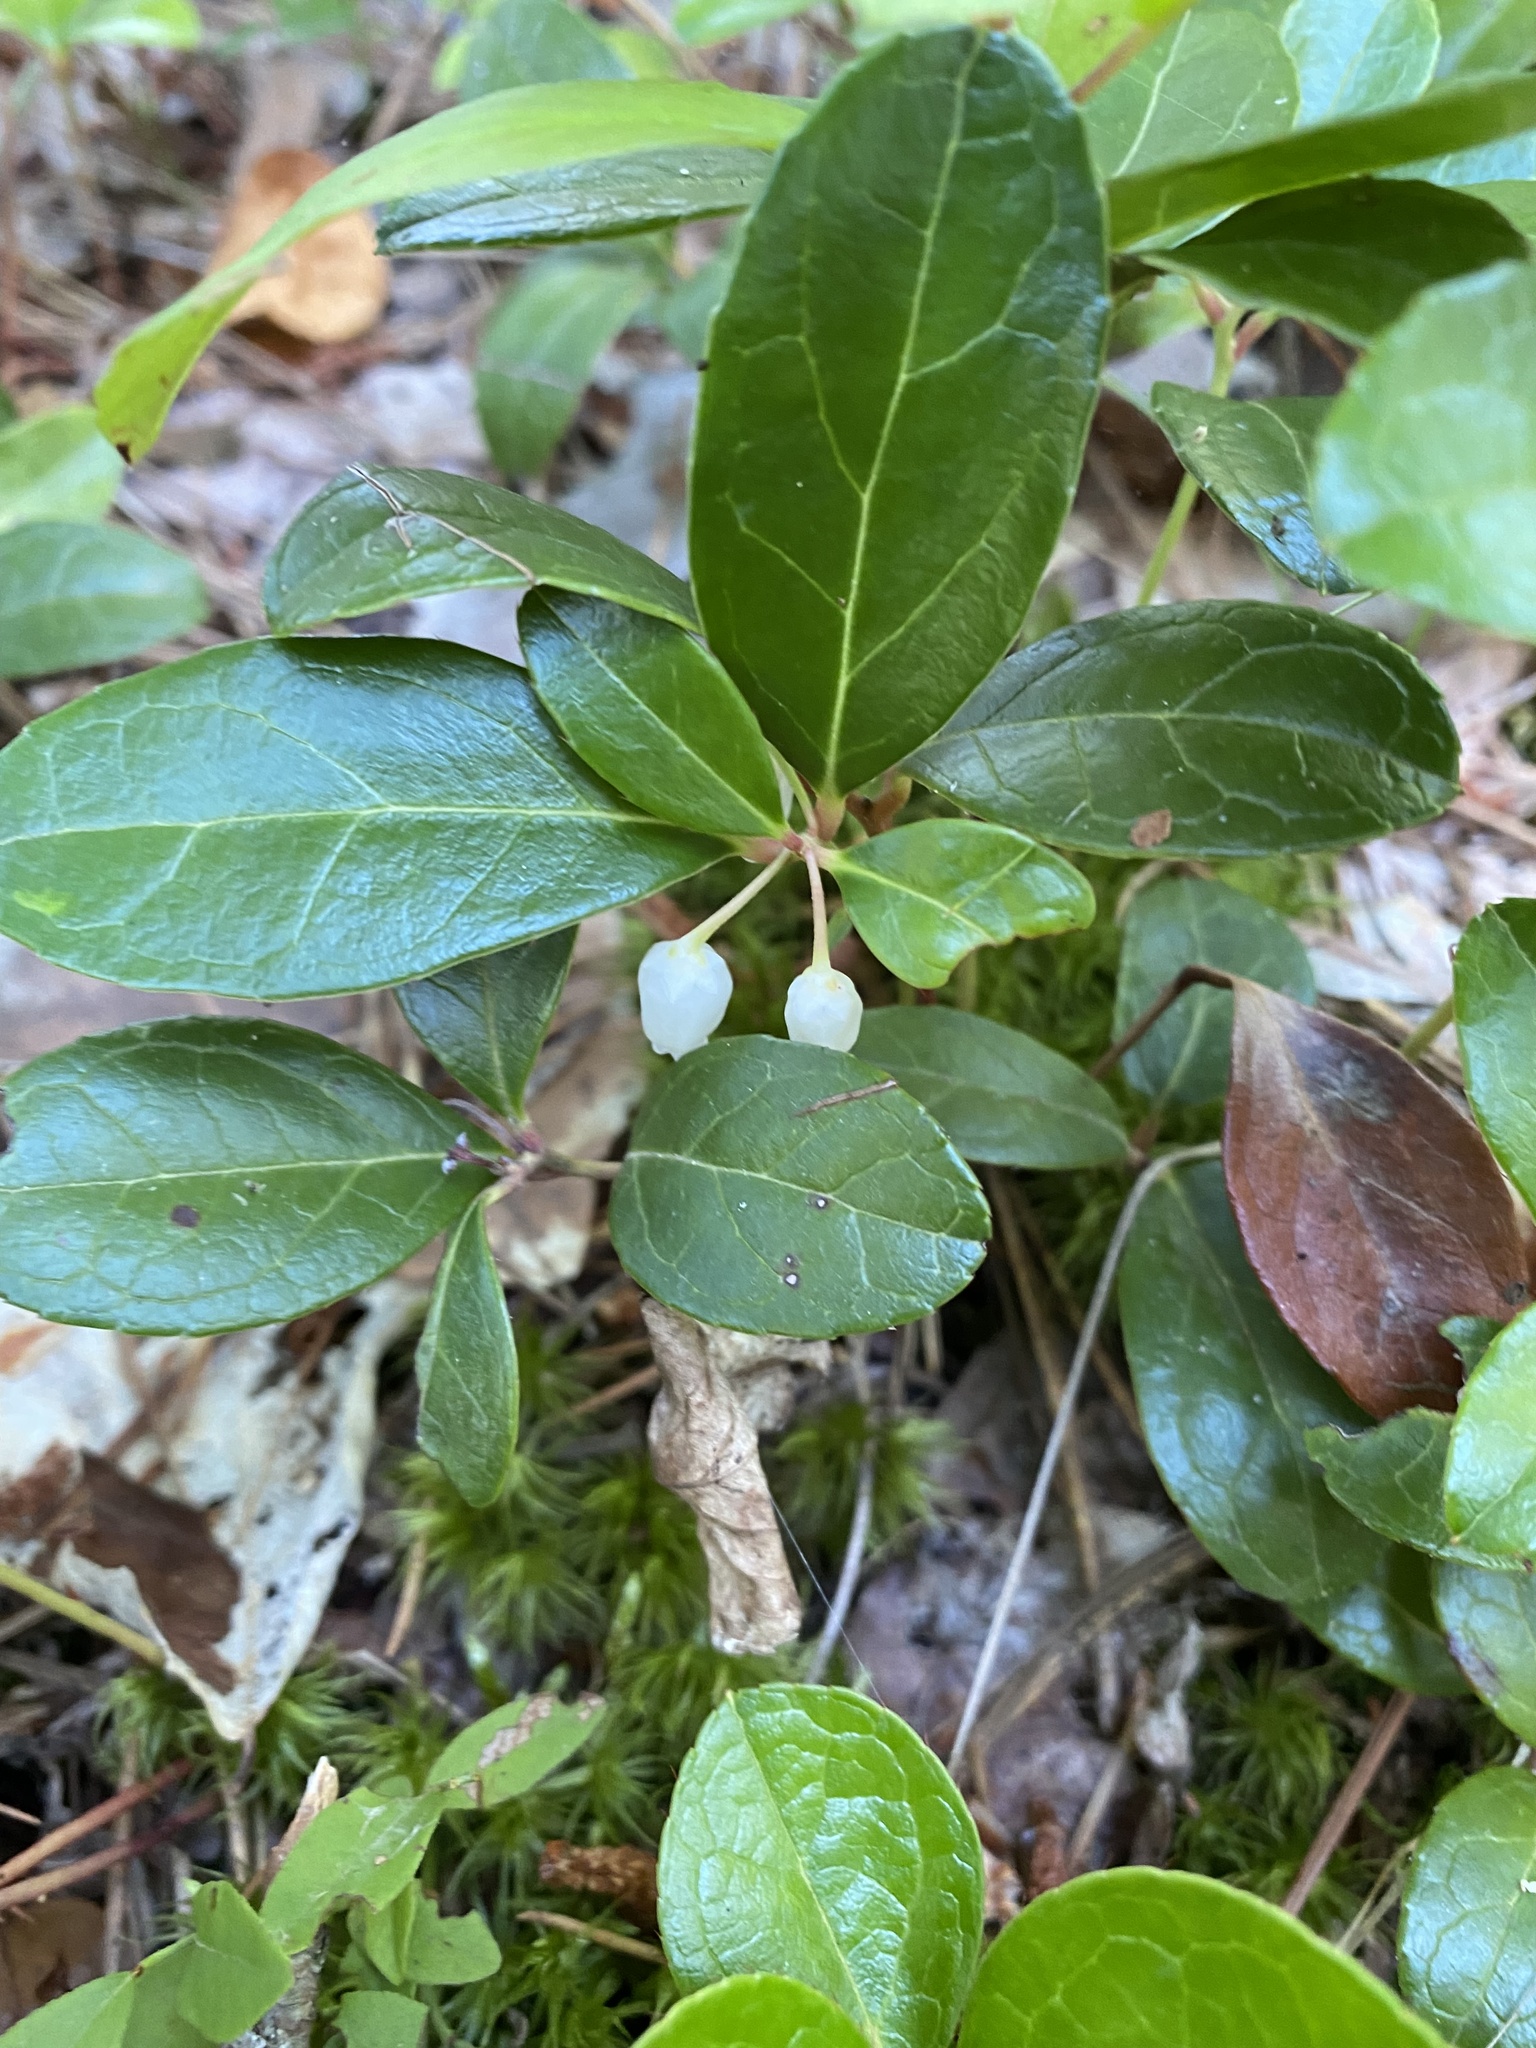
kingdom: Plantae
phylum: Tracheophyta
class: Magnoliopsida
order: Ericales
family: Ericaceae
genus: Gaultheria
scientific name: Gaultheria procumbens
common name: Checkerberry
